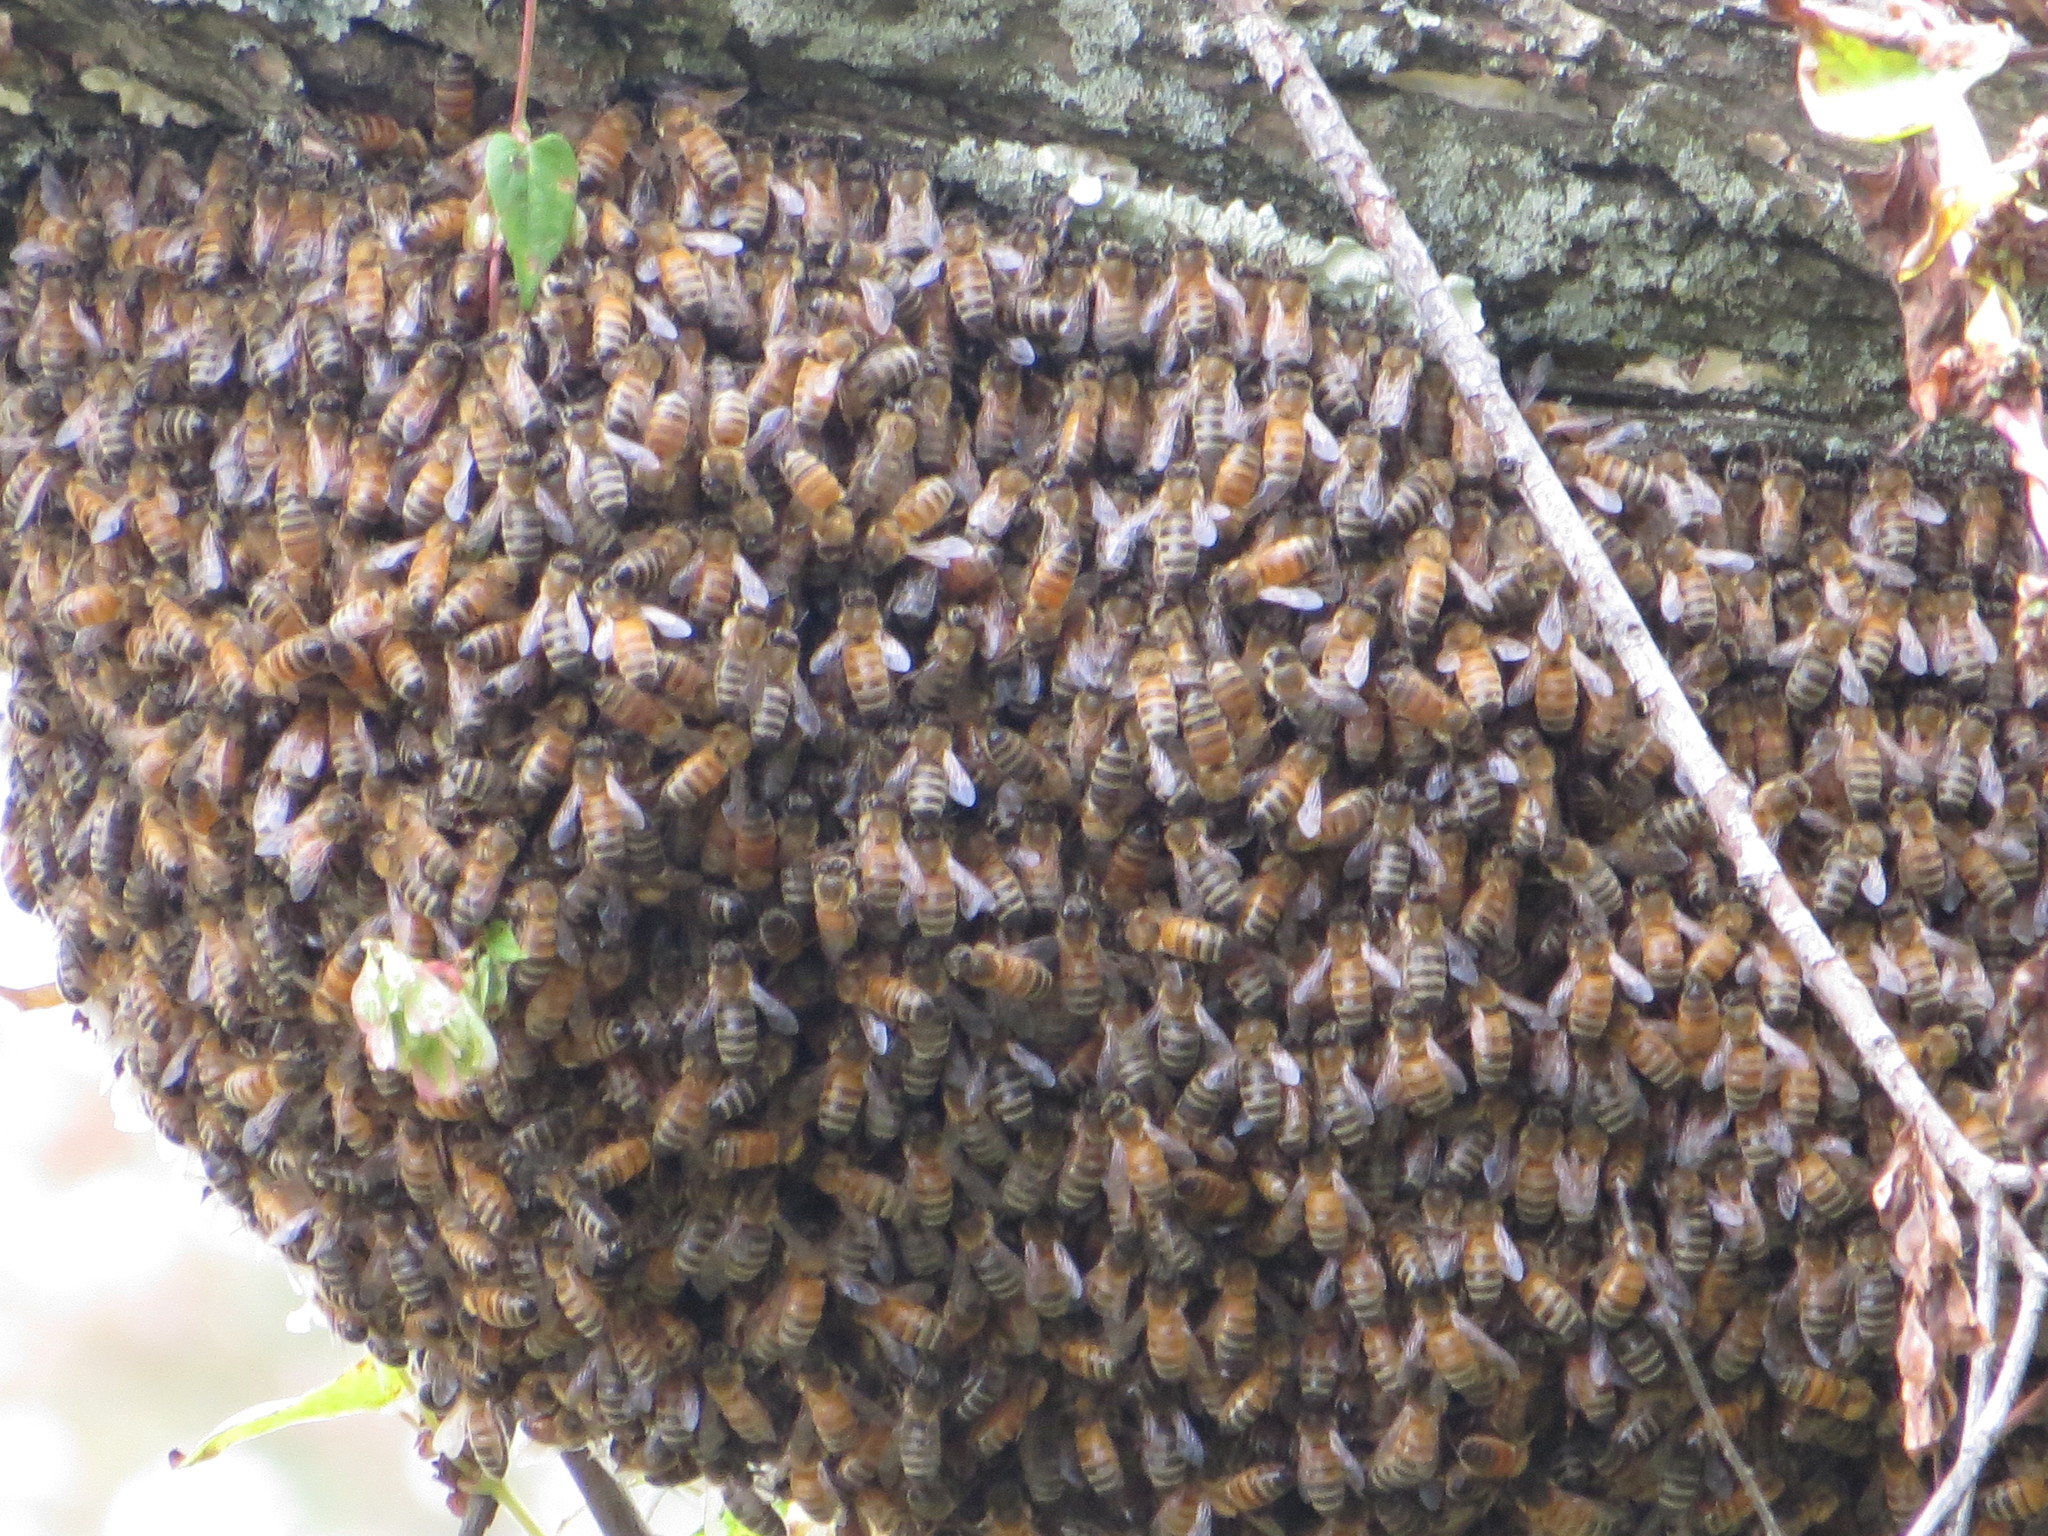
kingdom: Animalia
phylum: Arthropoda
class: Insecta
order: Hymenoptera
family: Apidae
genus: Apis
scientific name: Apis mellifera
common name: Honey bee
